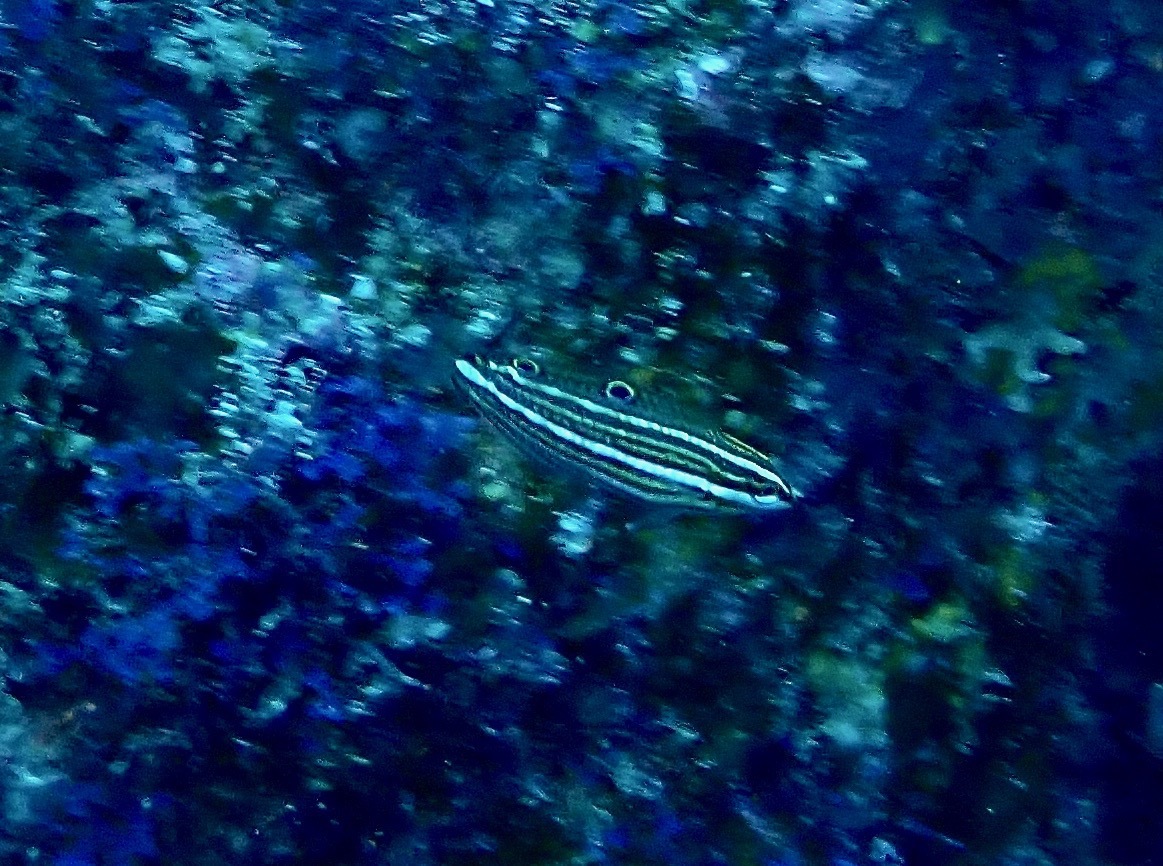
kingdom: Animalia
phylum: Chordata
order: Perciformes
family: Labridae
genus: Halichoeres
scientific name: Halichoeres biocellatus
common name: False-eyed wrasse
